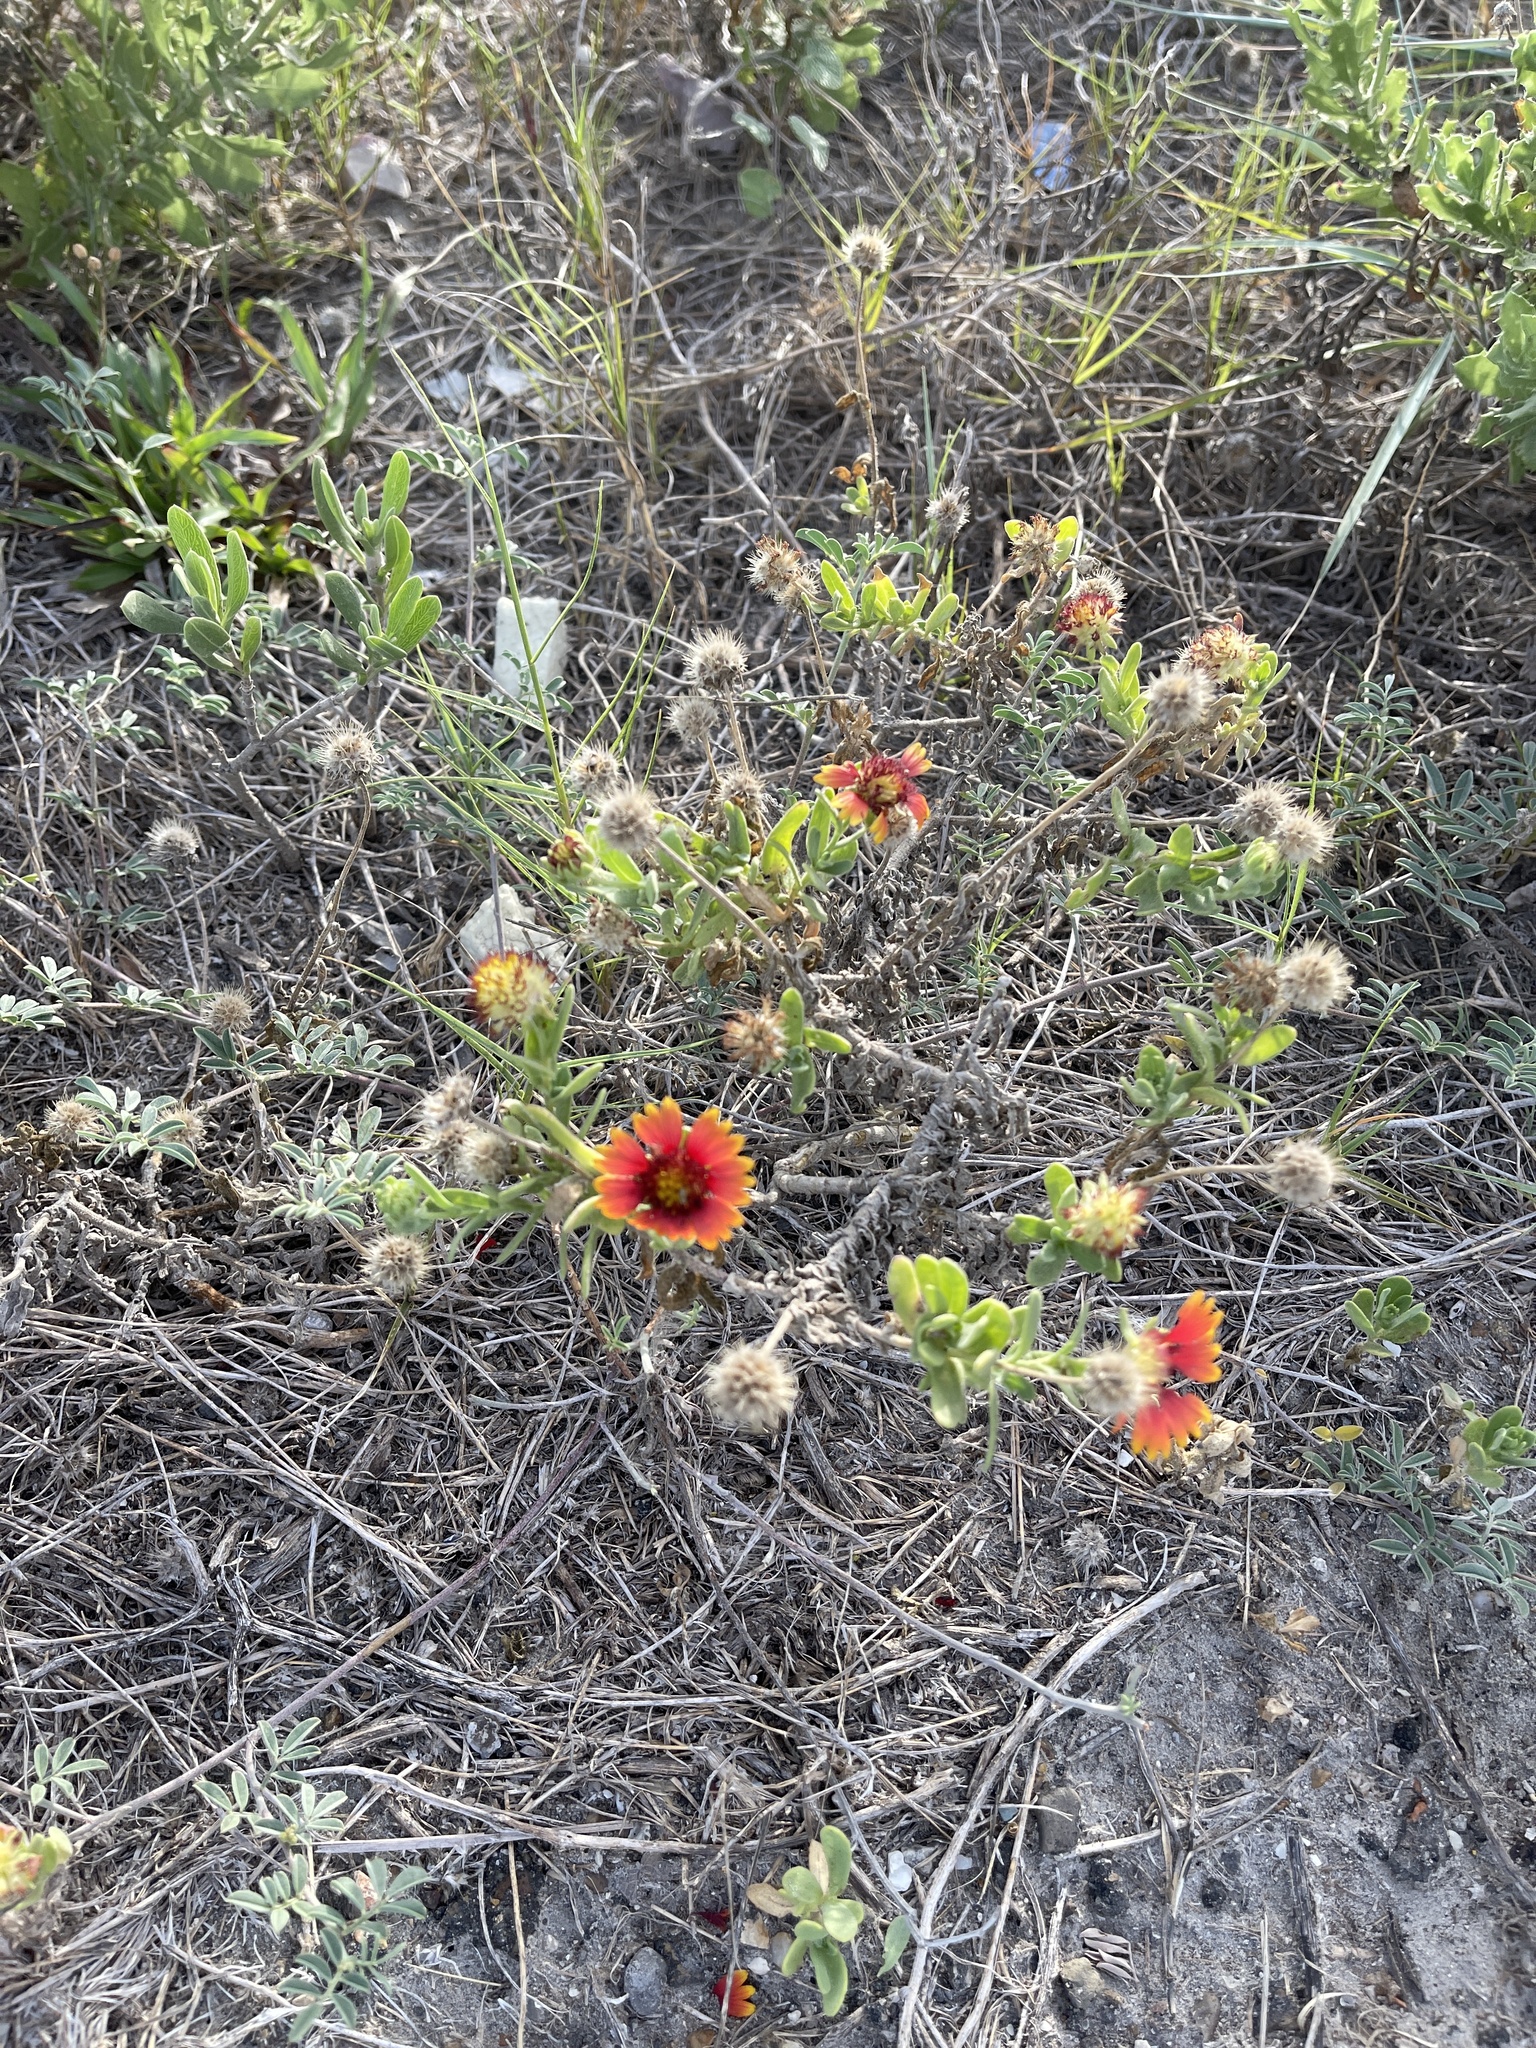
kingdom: Plantae
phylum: Tracheophyta
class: Magnoliopsida
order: Asterales
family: Asteraceae
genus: Gaillardia
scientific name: Gaillardia pulchella
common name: Firewheel
